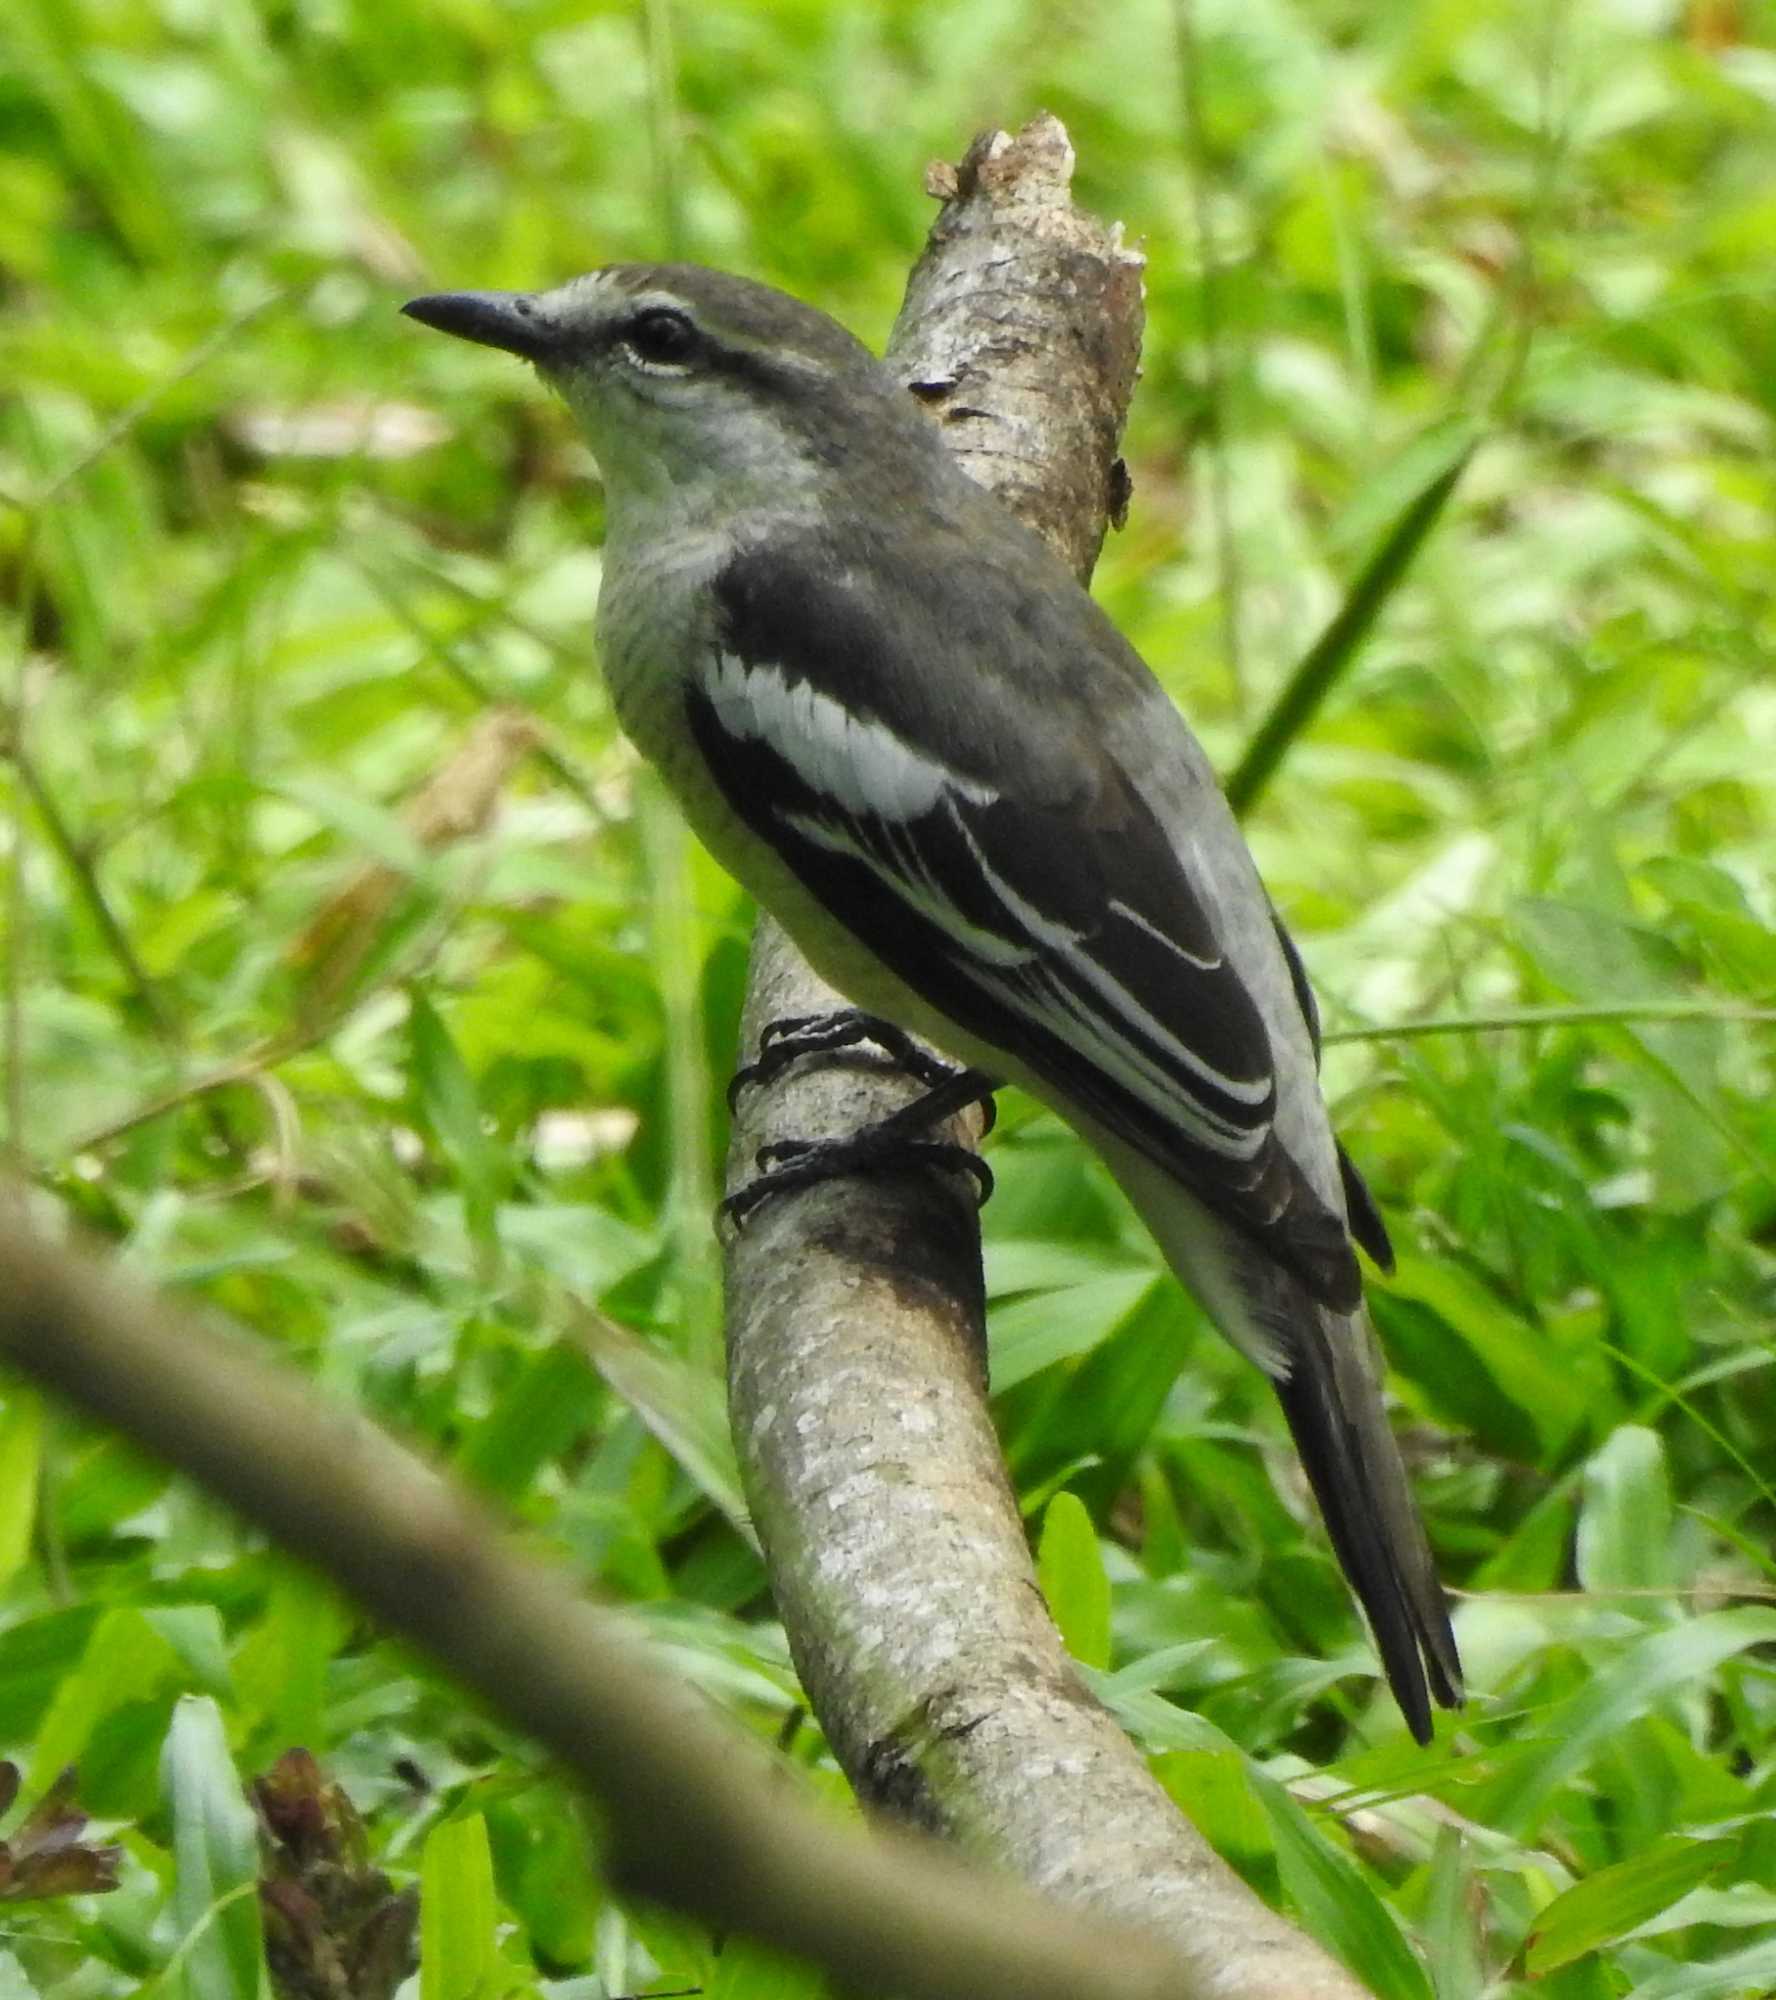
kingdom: Animalia
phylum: Chordata
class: Aves
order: Passeriformes
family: Campephagidae
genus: Lalage
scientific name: Lalage nigra
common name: Pied triller
